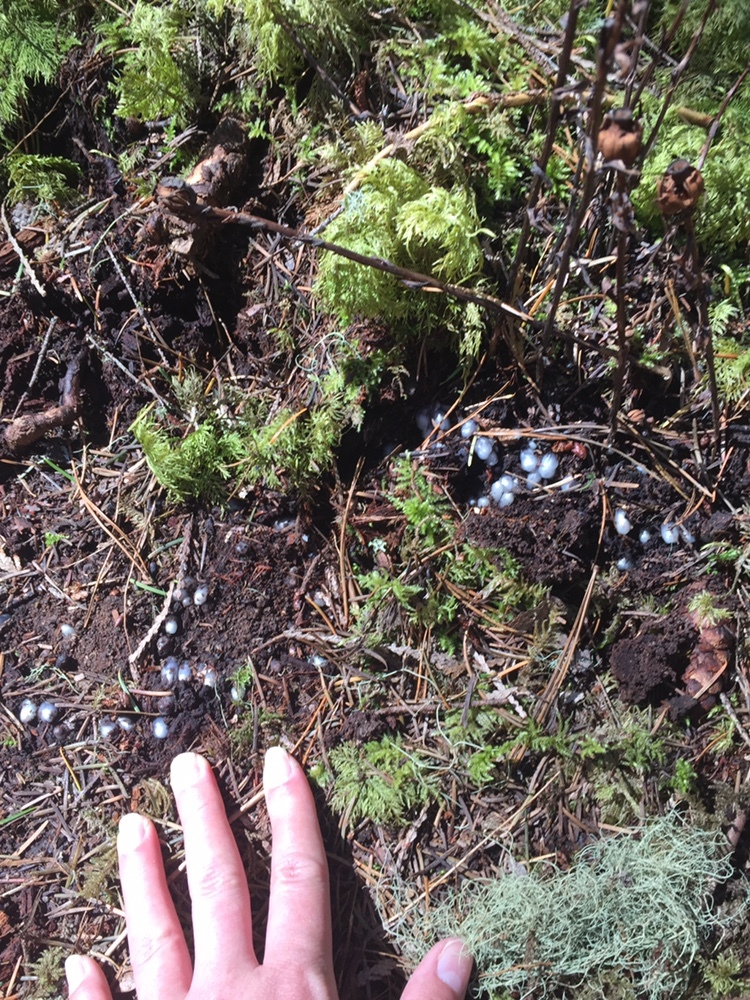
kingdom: Plantae
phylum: Tracheophyta
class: Magnoliopsida
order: Ericales
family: Ericaceae
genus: Monotropa
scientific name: Monotropa uniflora
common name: Convulsion root
